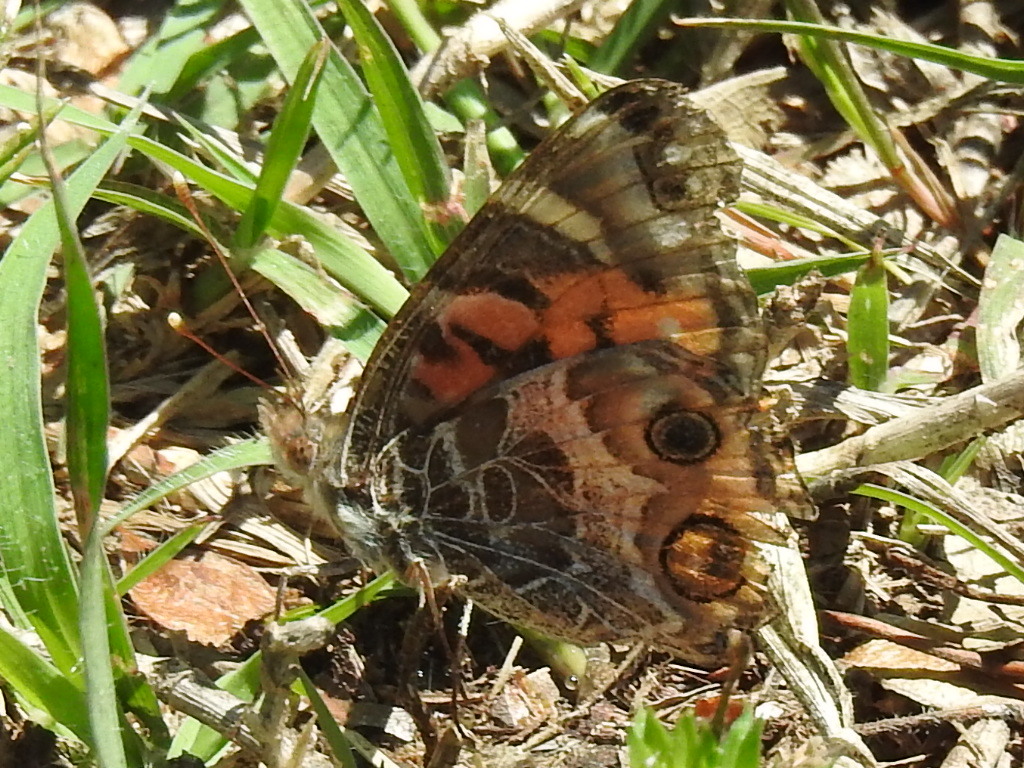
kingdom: Animalia
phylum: Arthropoda
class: Insecta
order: Lepidoptera
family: Nymphalidae
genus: Vanessa
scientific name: Vanessa virginiensis
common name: American lady
